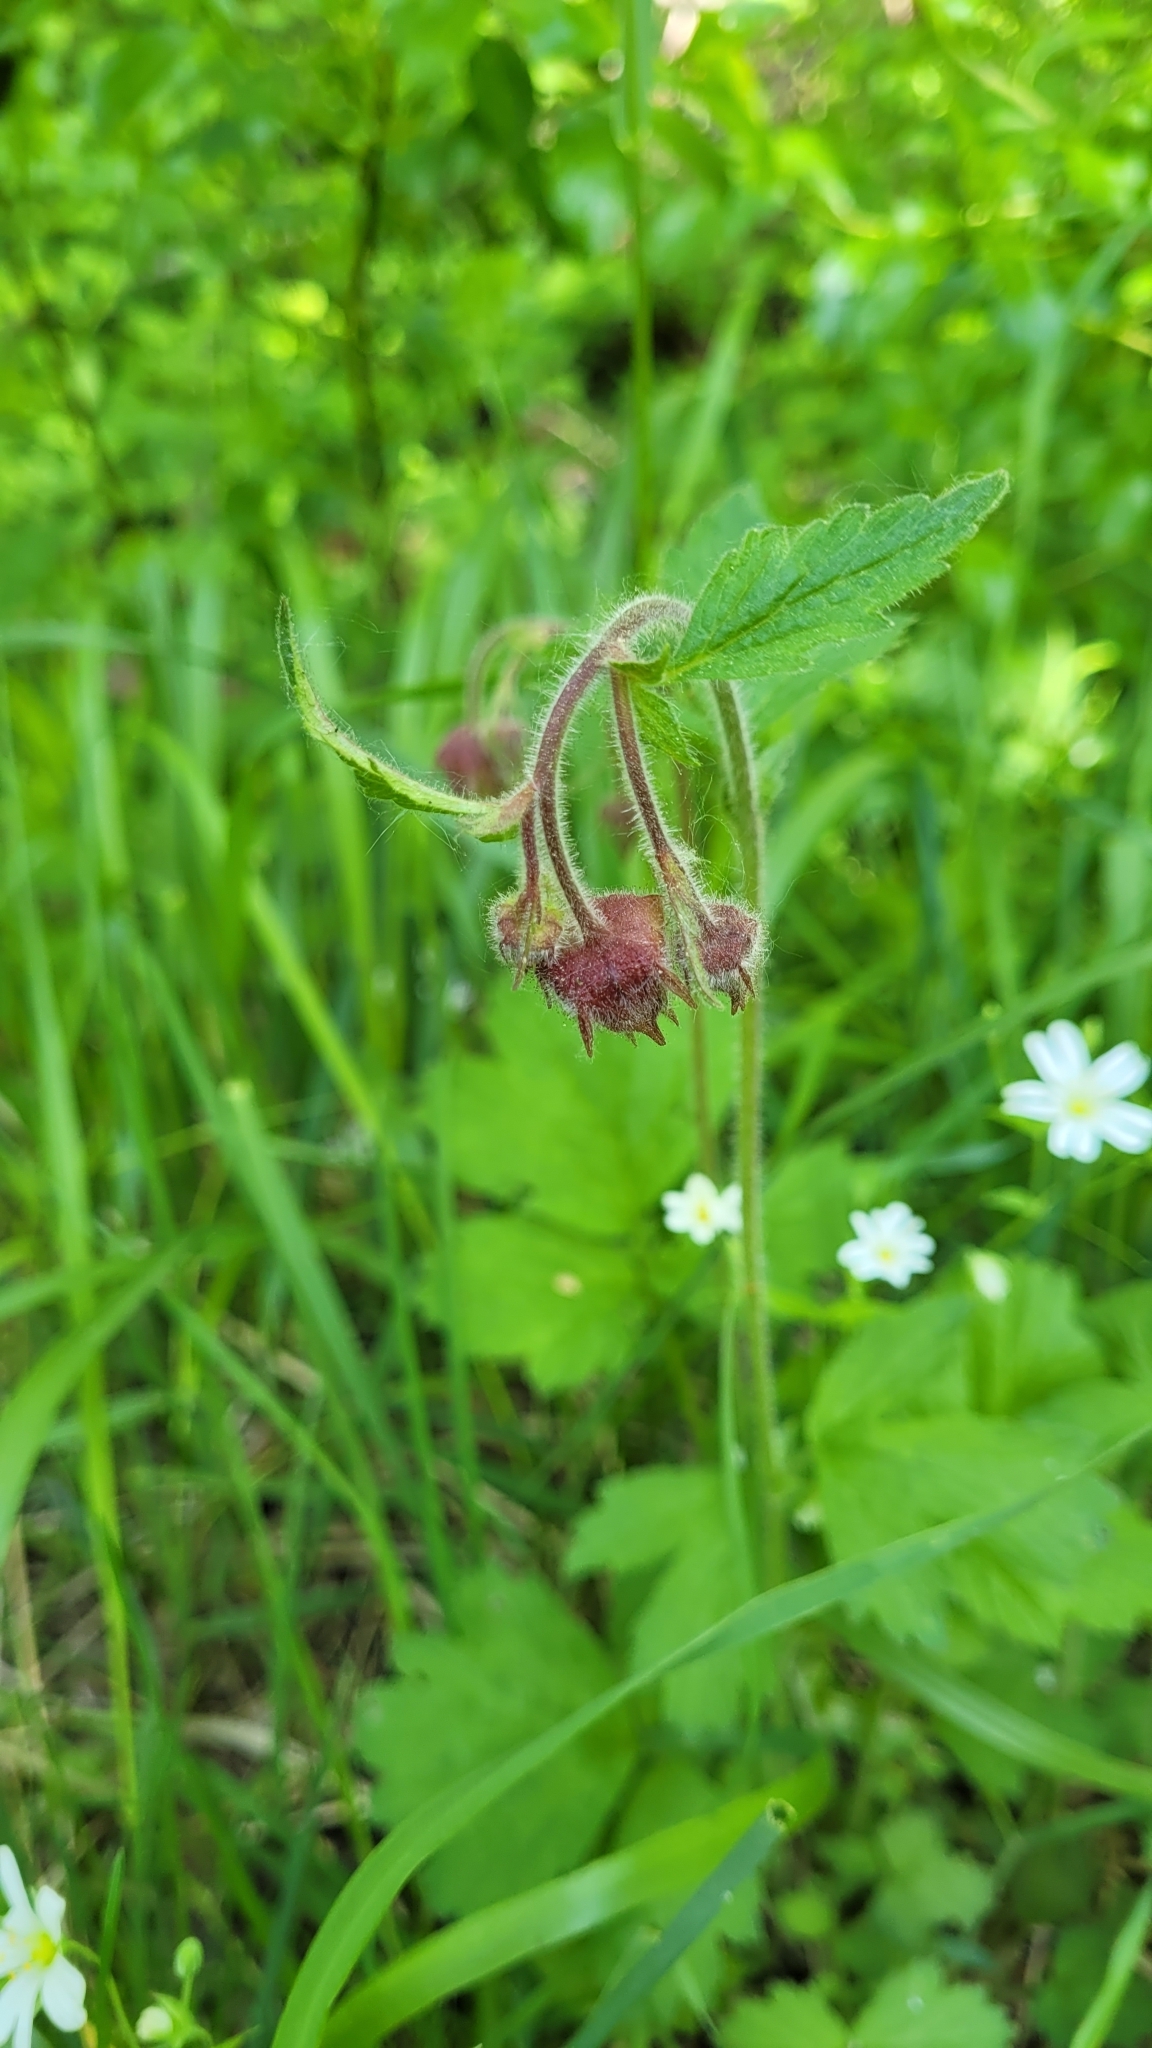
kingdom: Plantae
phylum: Tracheophyta
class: Magnoliopsida
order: Rosales
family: Rosaceae
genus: Geum
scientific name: Geum rivale
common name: Water avens
